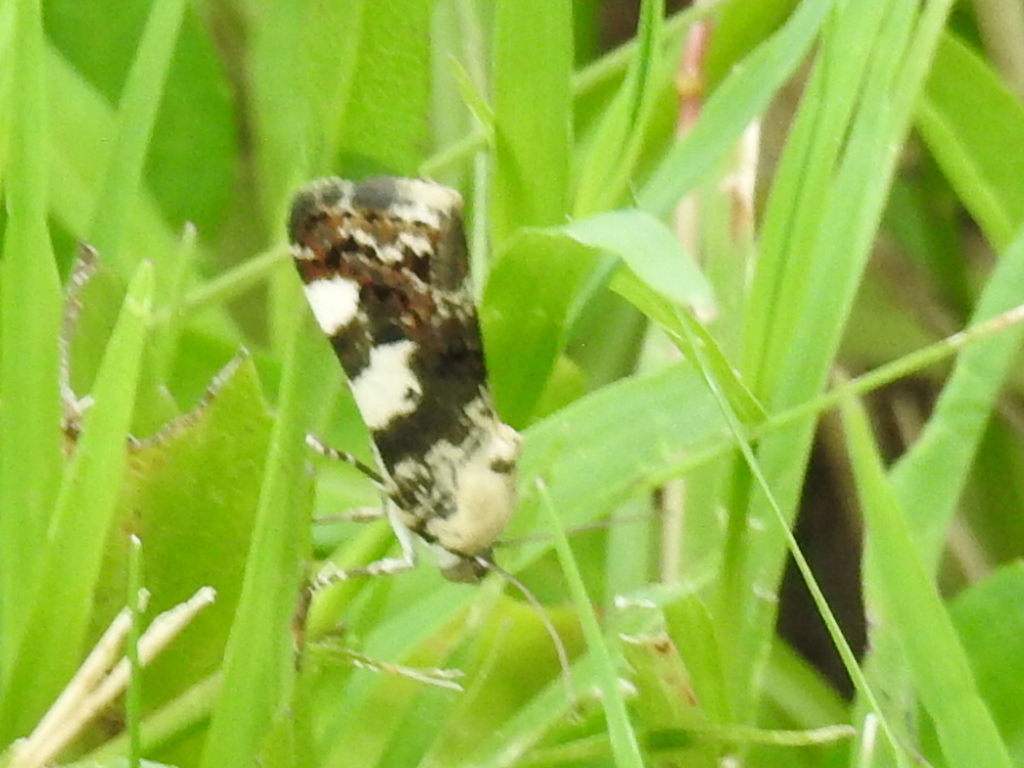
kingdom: Animalia
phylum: Arthropoda
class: Insecta
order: Lepidoptera
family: Noctuidae
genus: Acontia
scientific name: Acontia aprica
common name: Nun
